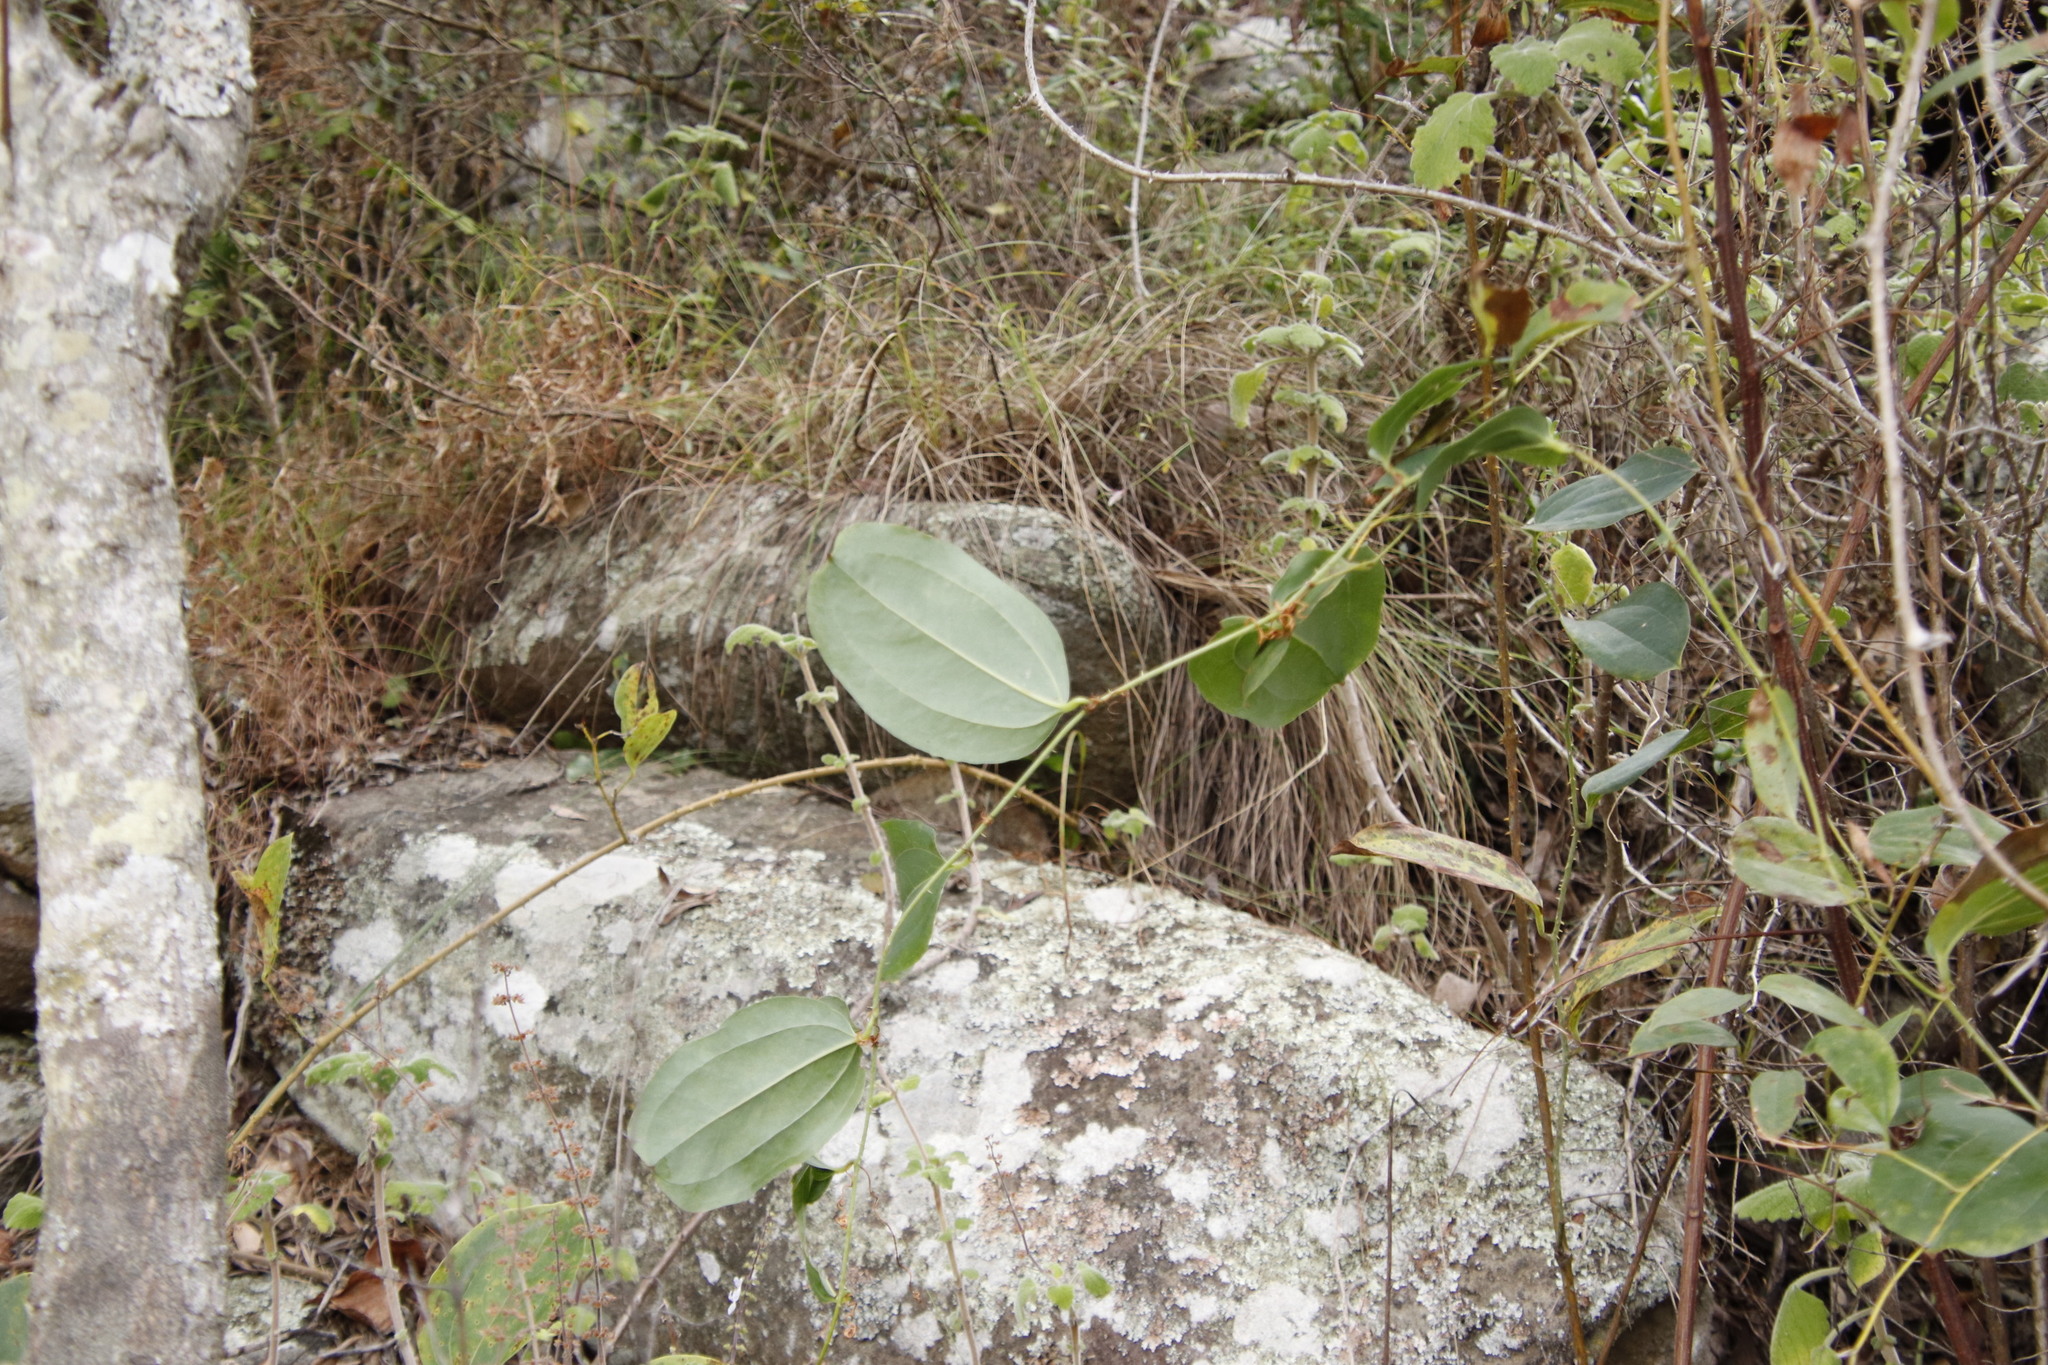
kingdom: Plantae
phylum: Tracheophyta
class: Liliopsida
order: Liliales
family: Smilacaceae
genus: Smilax
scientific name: Smilax anceps
